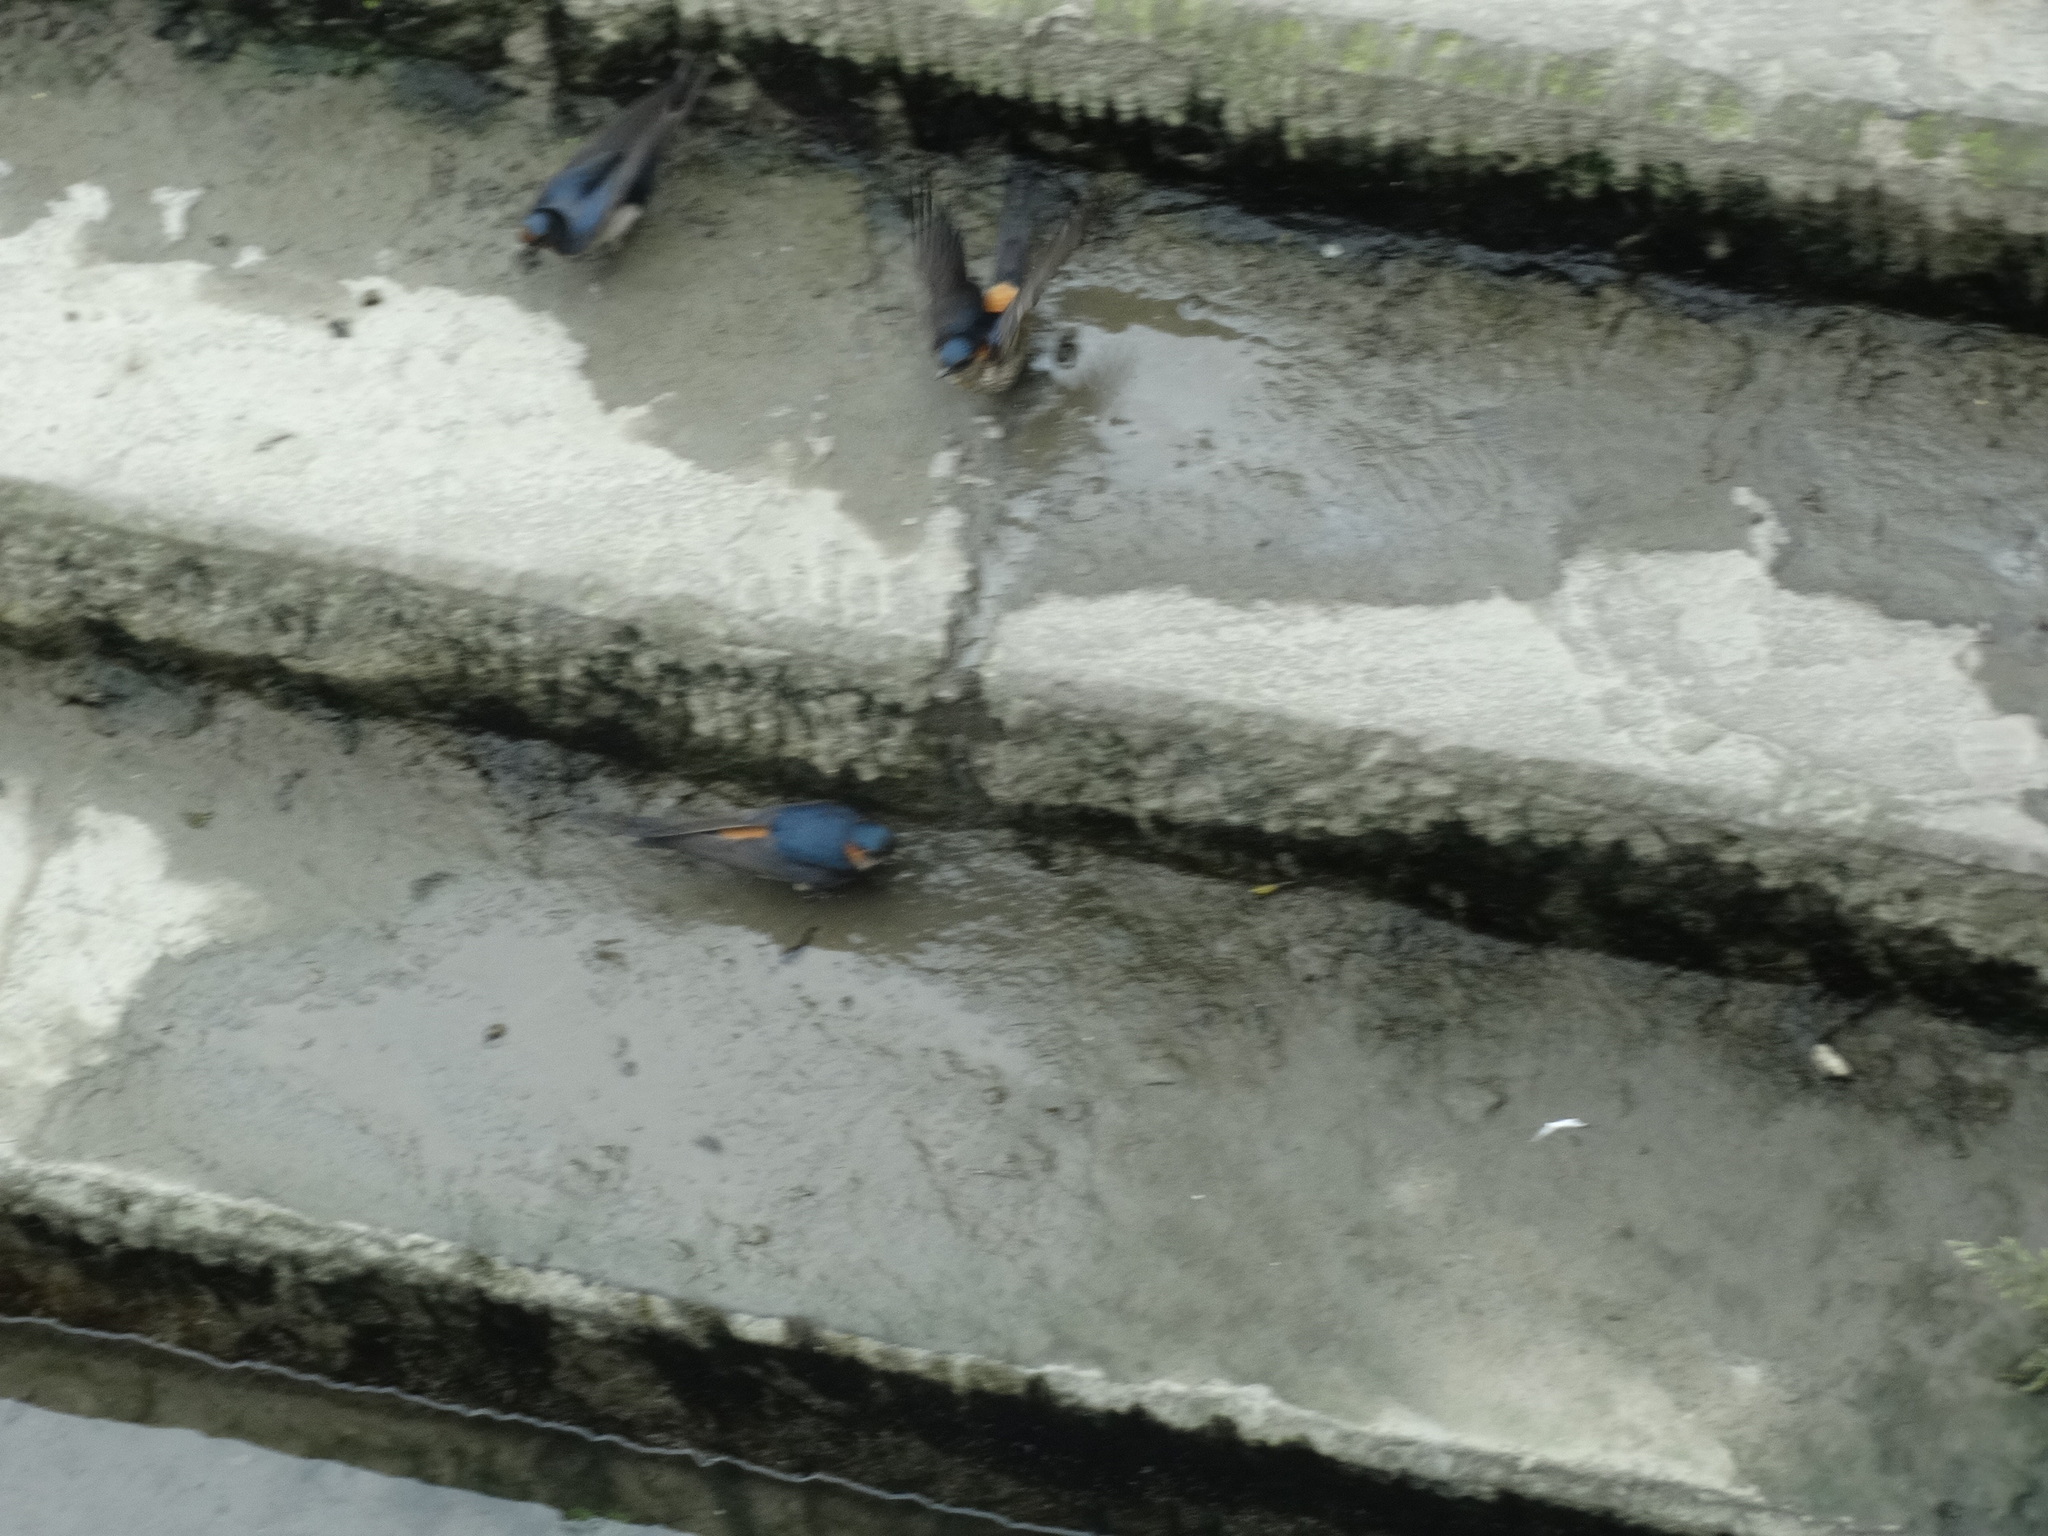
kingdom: Animalia
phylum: Chordata
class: Aves
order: Passeriformes
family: Hirundinidae
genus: Hirundo
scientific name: Hirundo rustica
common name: Barn swallow
